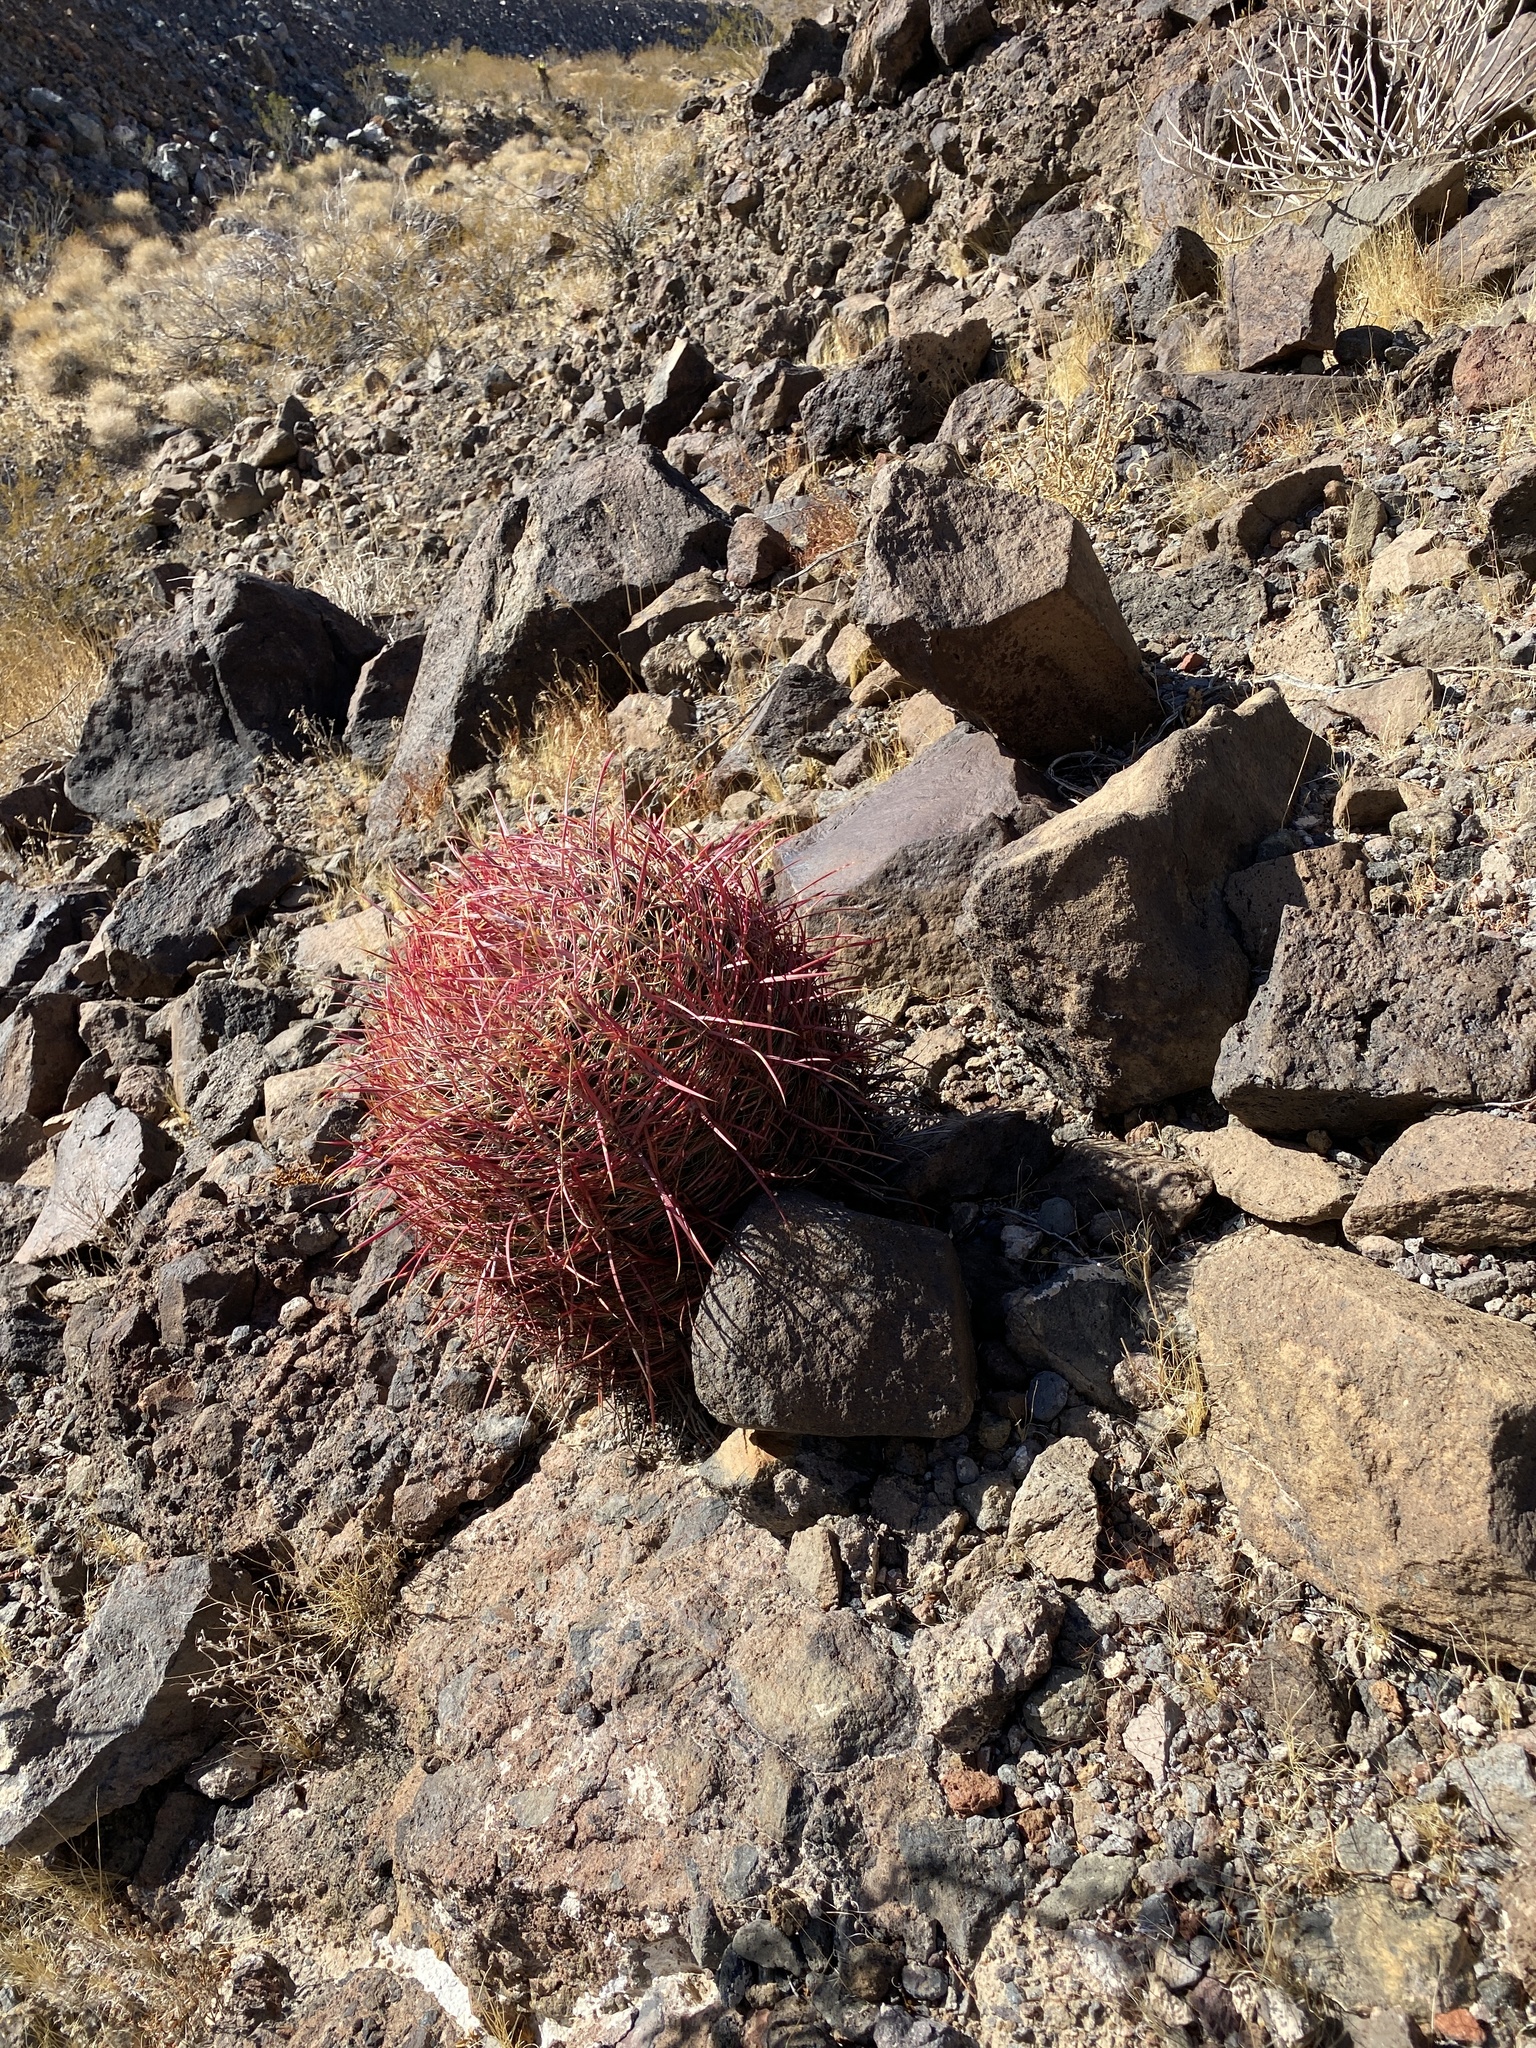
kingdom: Plantae
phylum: Tracheophyta
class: Magnoliopsida
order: Caryophyllales
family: Cactaceae
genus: Ferocactus
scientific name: Ferocactus cylindraceus
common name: California barrel cactus
